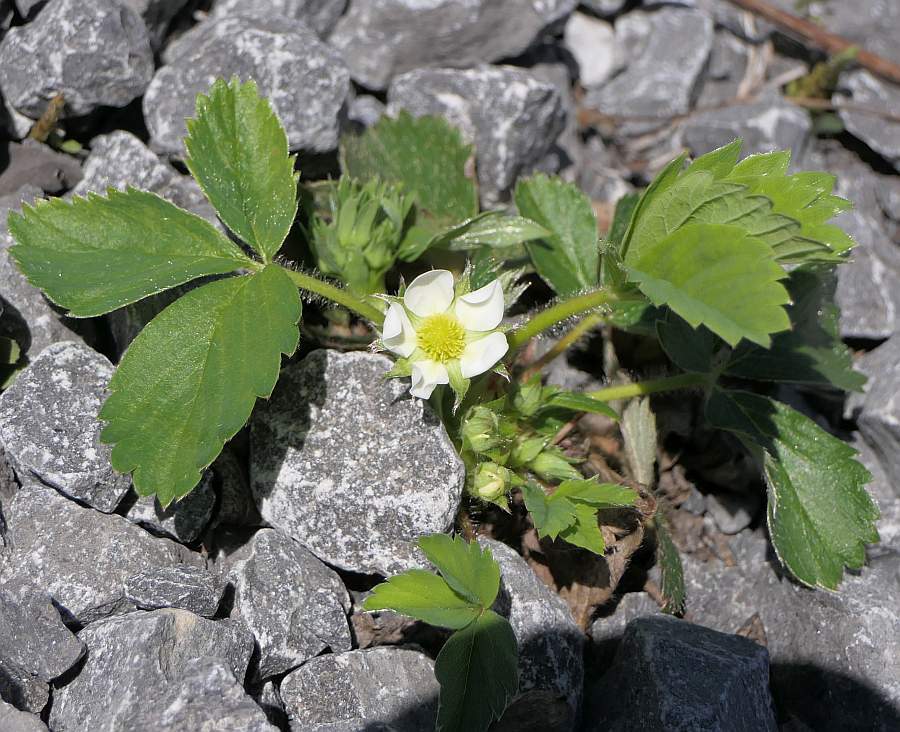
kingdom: Plantae
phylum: Tracheophyta
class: Magnoliopsida
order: Rosales
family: Rosaceae
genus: Fragaria
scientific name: Fragaria virginiana
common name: Thickleaved wild strawberry
